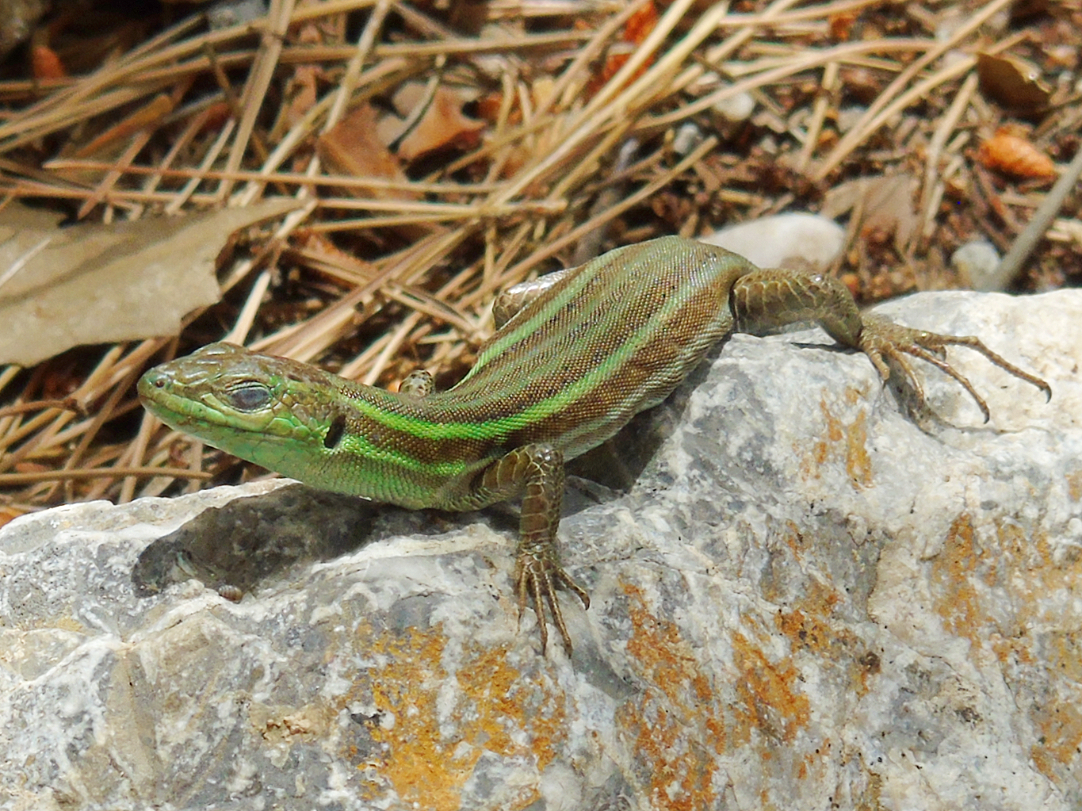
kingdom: Animalia
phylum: Chordata
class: Squamata
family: Lacertidae
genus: Podarcis
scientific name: Podarcis peloponnesiacus
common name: Peloponnese wall lizard
